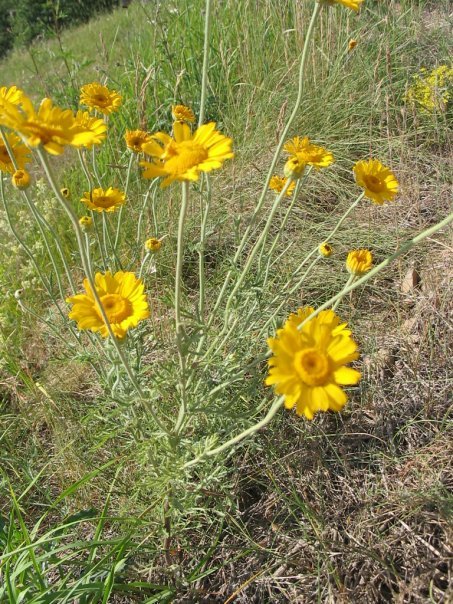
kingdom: Plantae
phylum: Tracheophyta
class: Magnoliopsida
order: Asterales
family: Asteraceae
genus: Cota
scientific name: Cota tinctoria
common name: Golden chamomile
